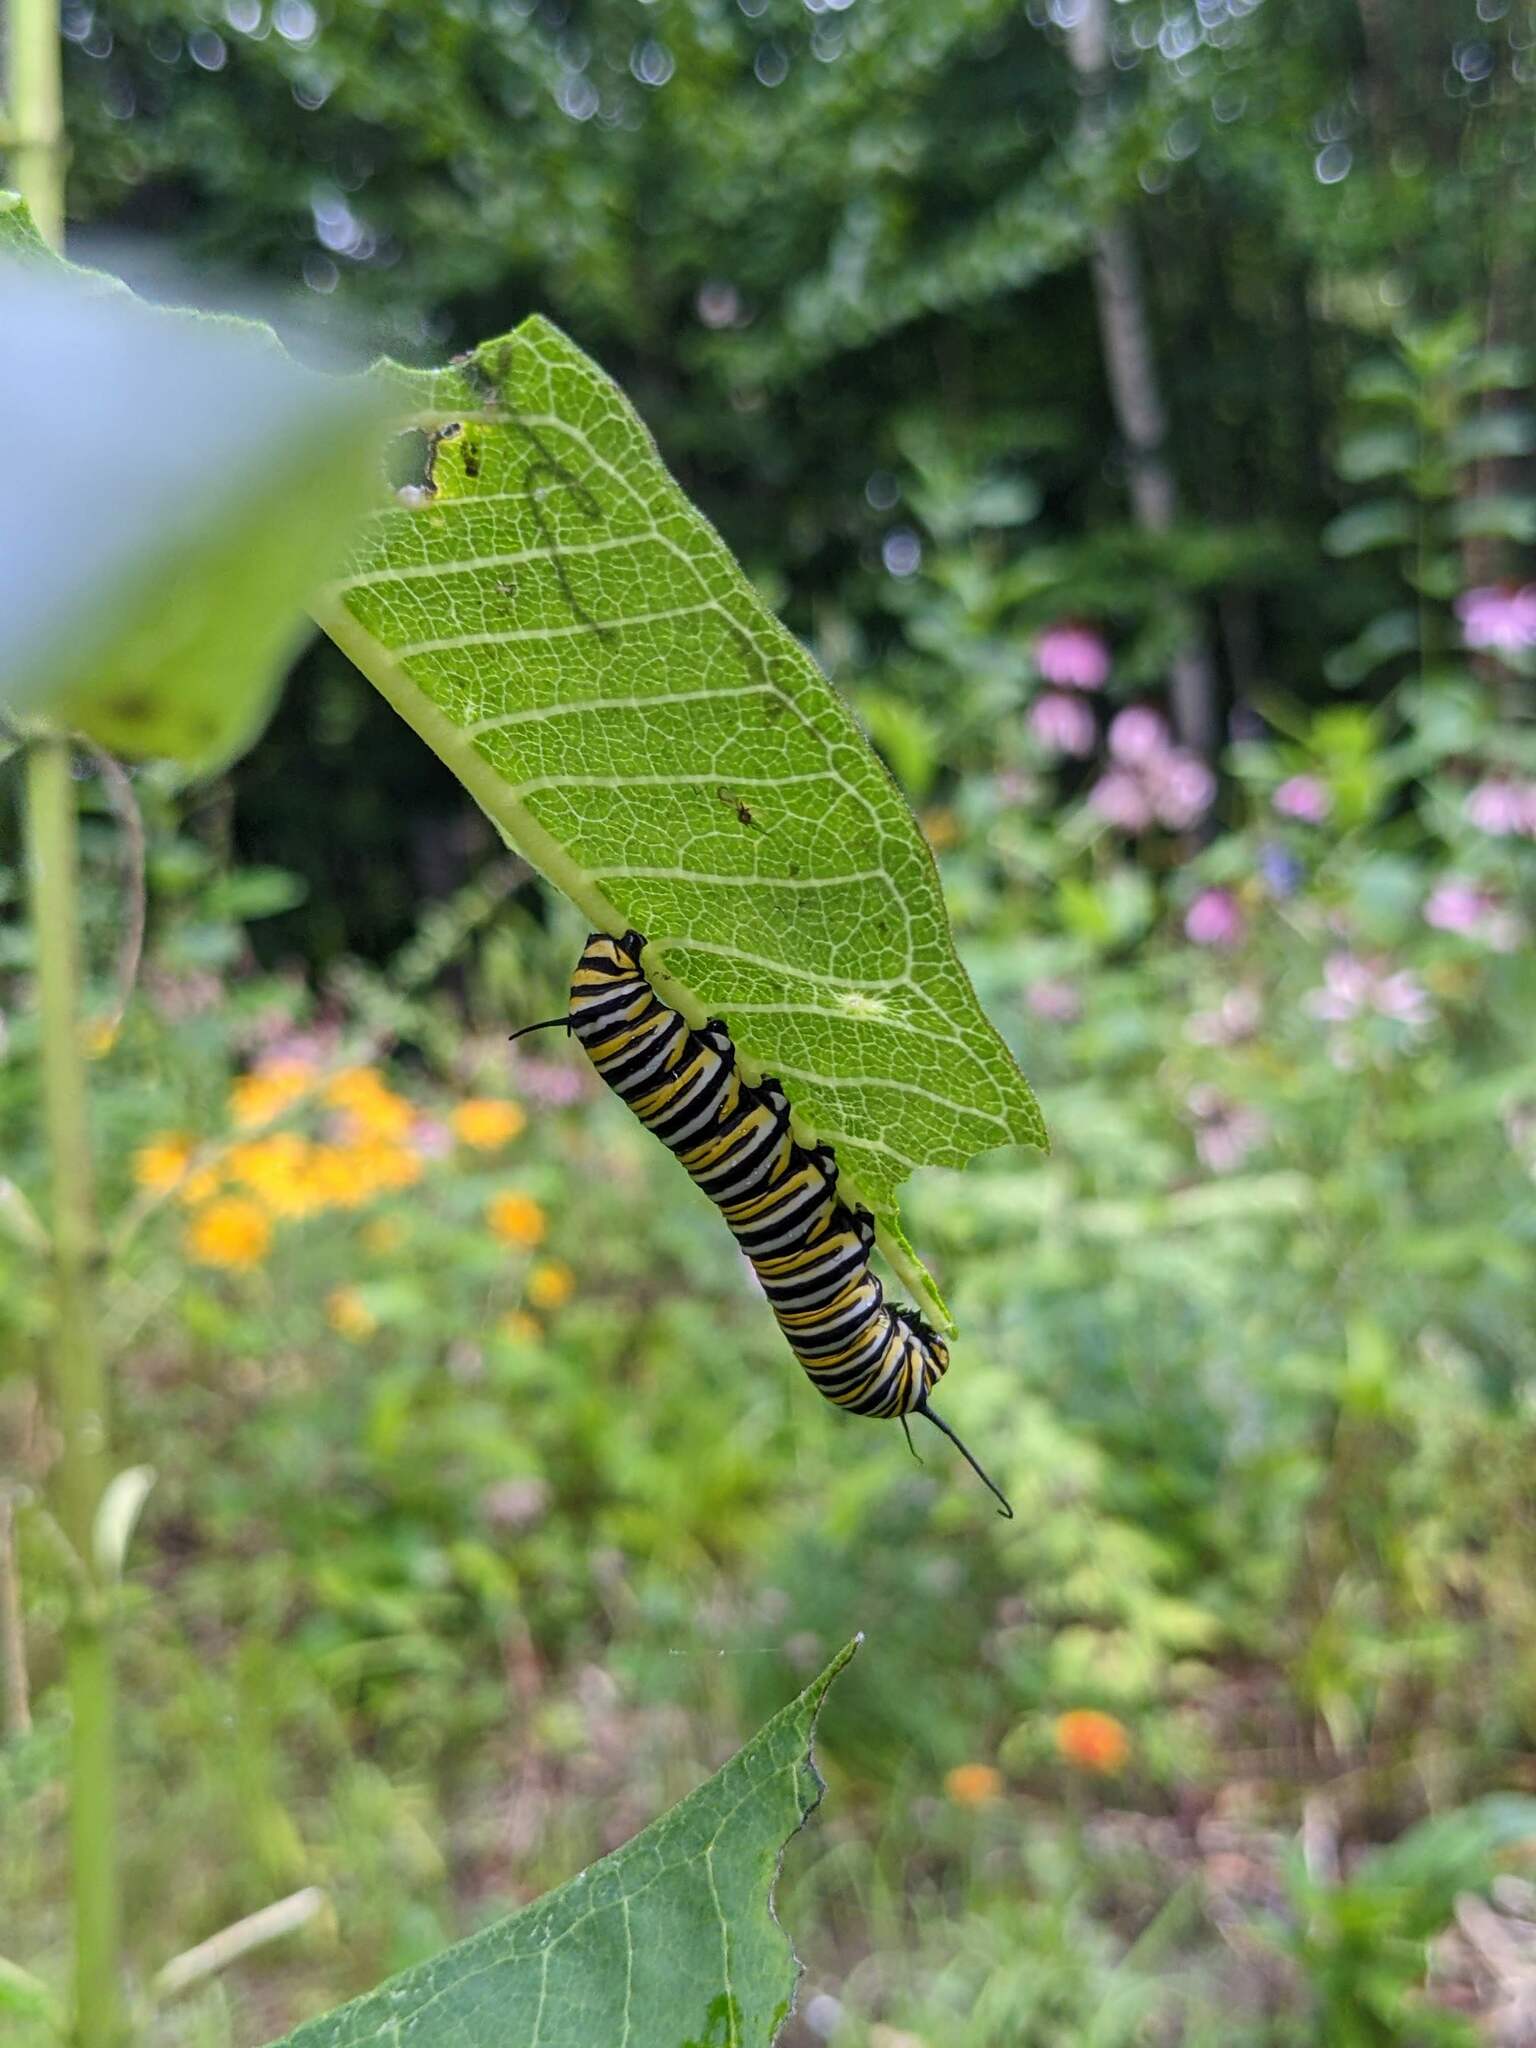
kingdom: Animalia
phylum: Arthropoda
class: Insecta
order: Lepidoptera
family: Nymphalidae
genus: Danaus
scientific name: Danaus plexippus
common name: Monarch
